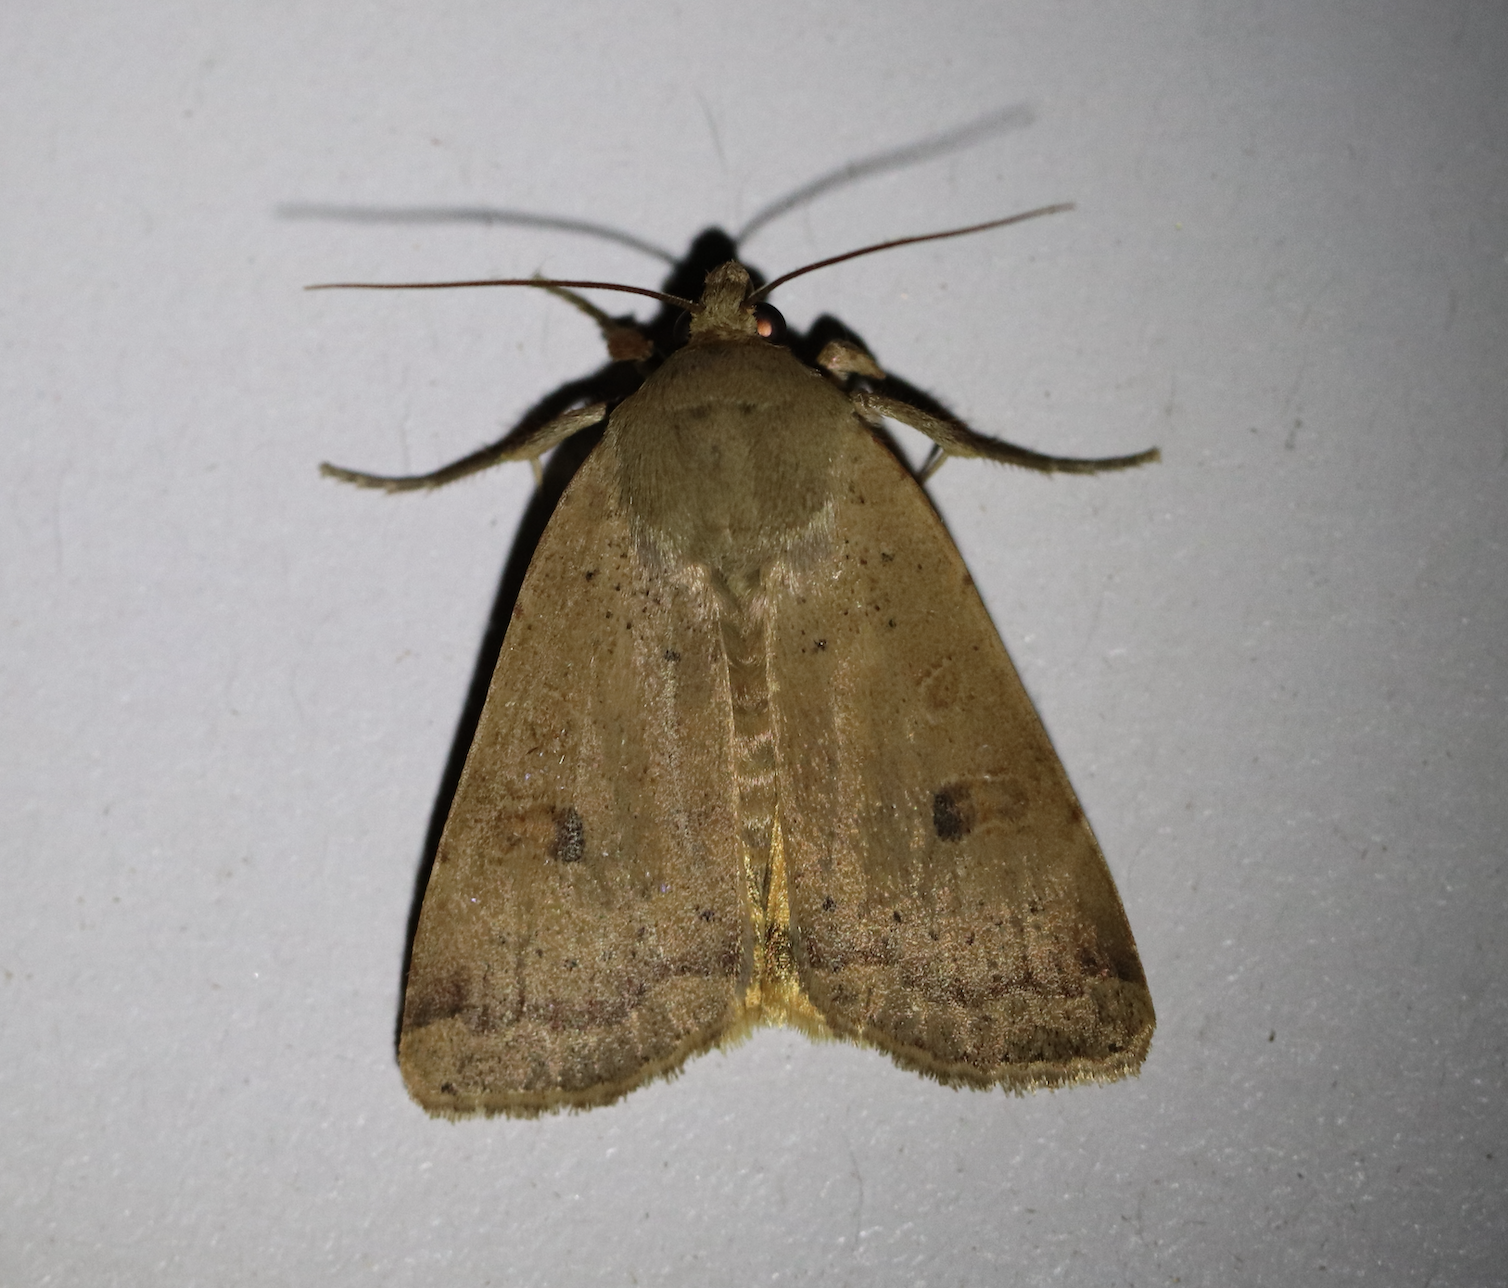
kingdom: Animalia
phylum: Arthropoda
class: Insecta
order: Lepidoptera
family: Noctuidae
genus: Noctua
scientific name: Noctua comes
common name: Lesser yellow underwing
